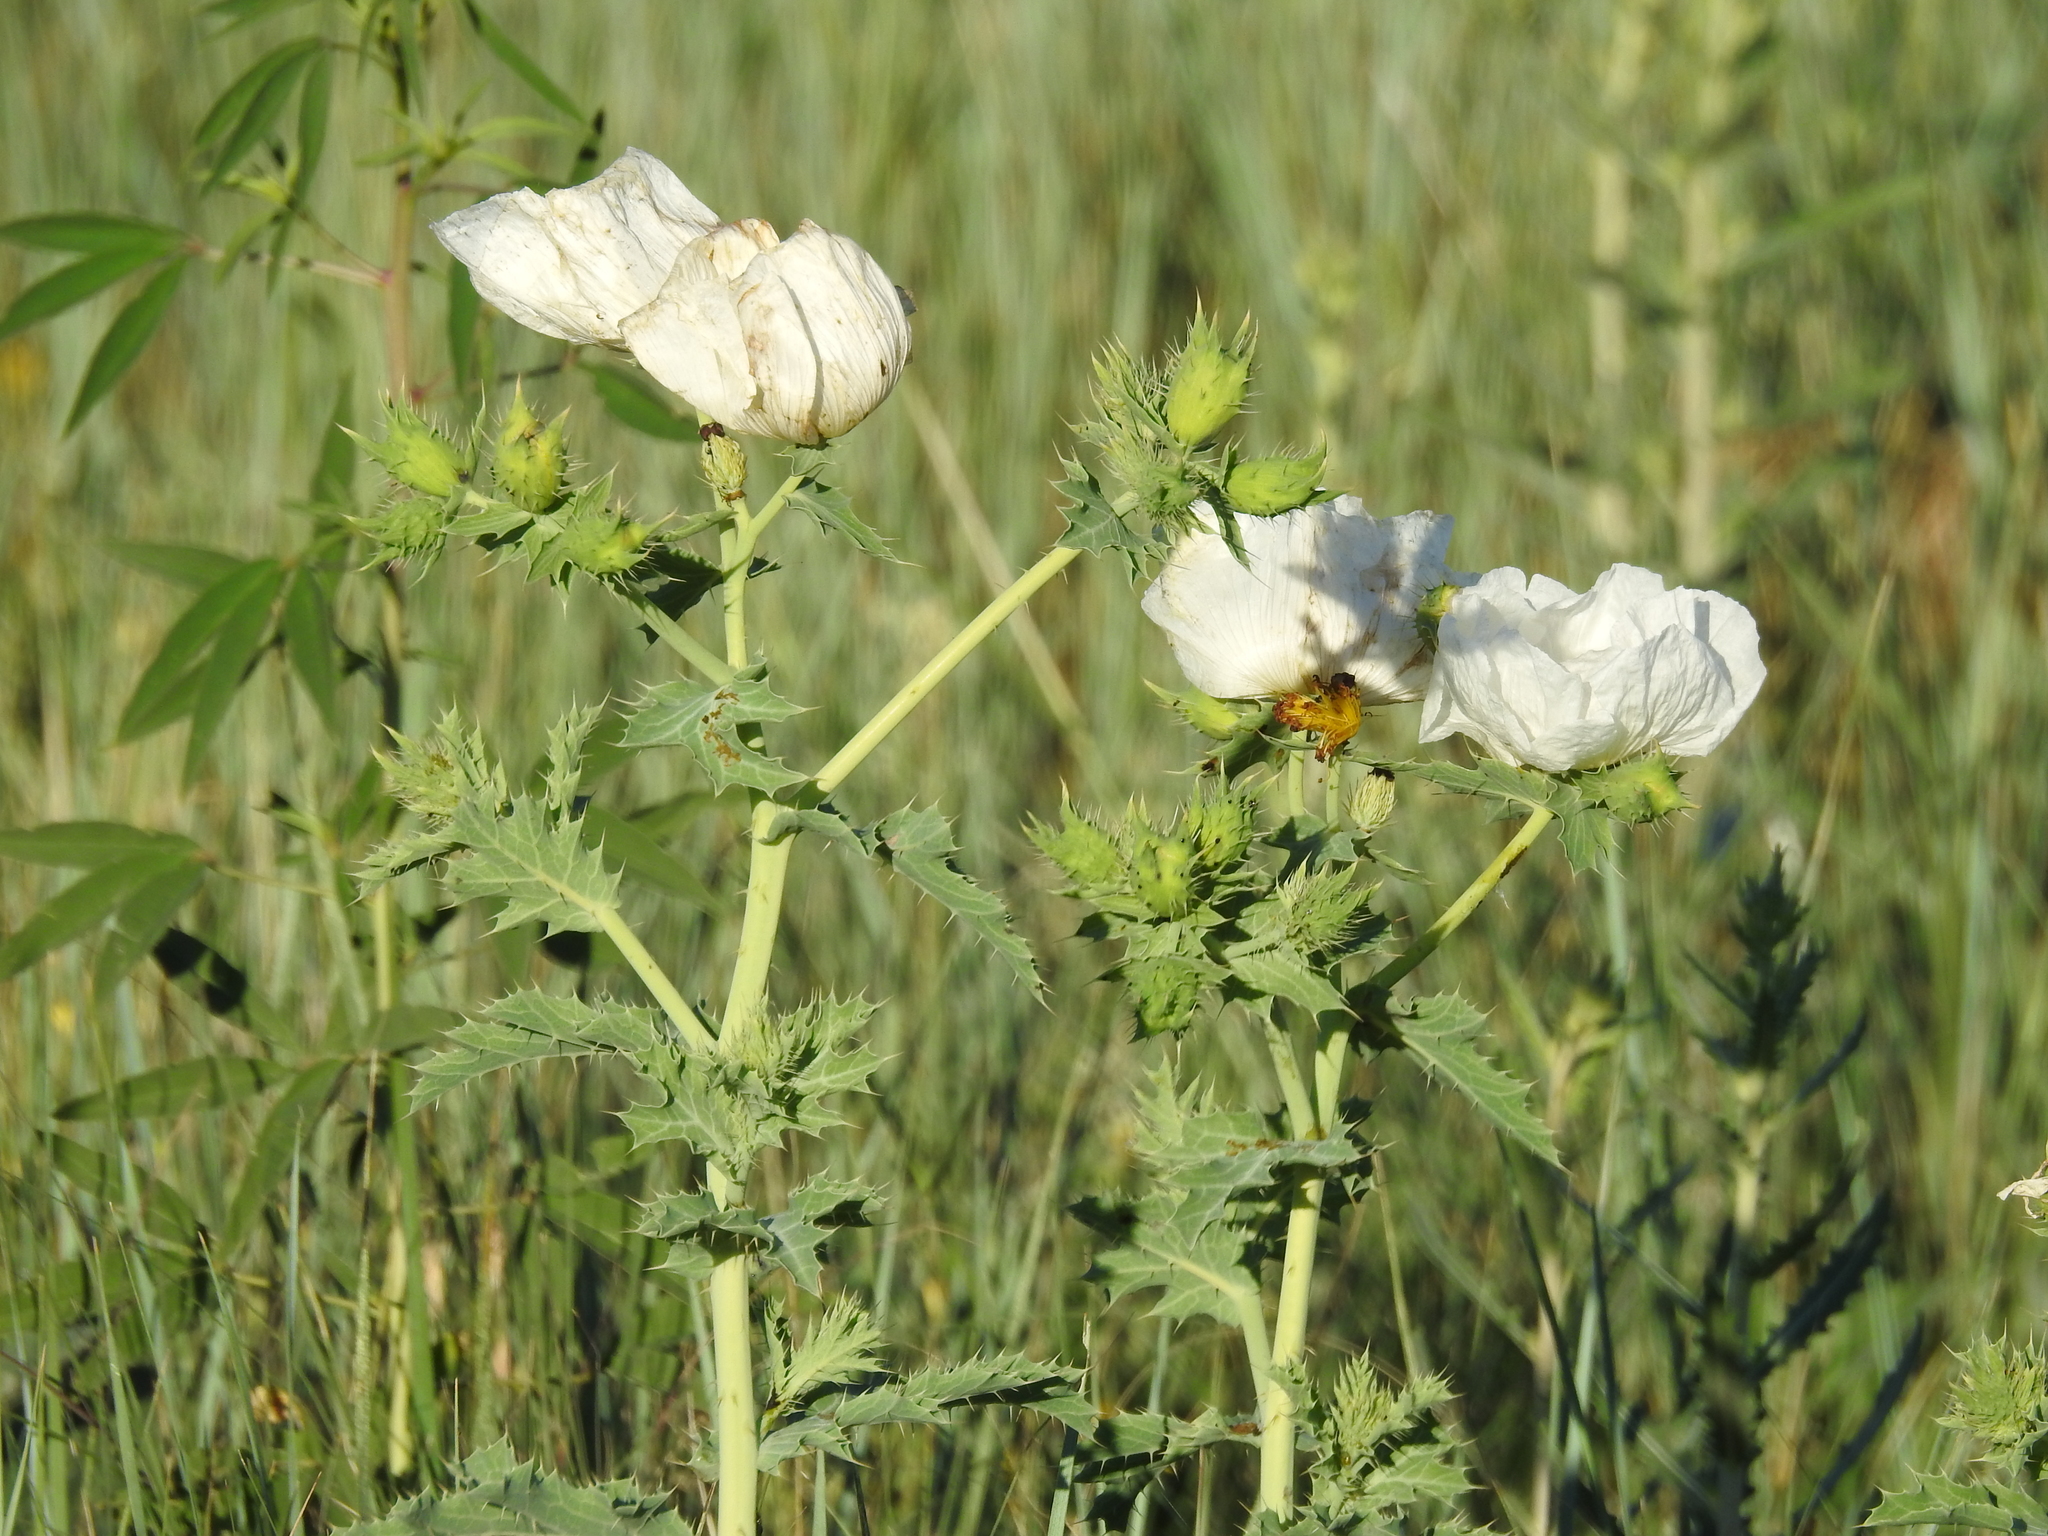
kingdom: Plantae
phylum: Tracheophyta
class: Magnoliopsida
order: Ranunculales
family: Papaveraceae
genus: Argemone
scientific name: Argemone polyanthemos
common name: Plains prickly-poppy
